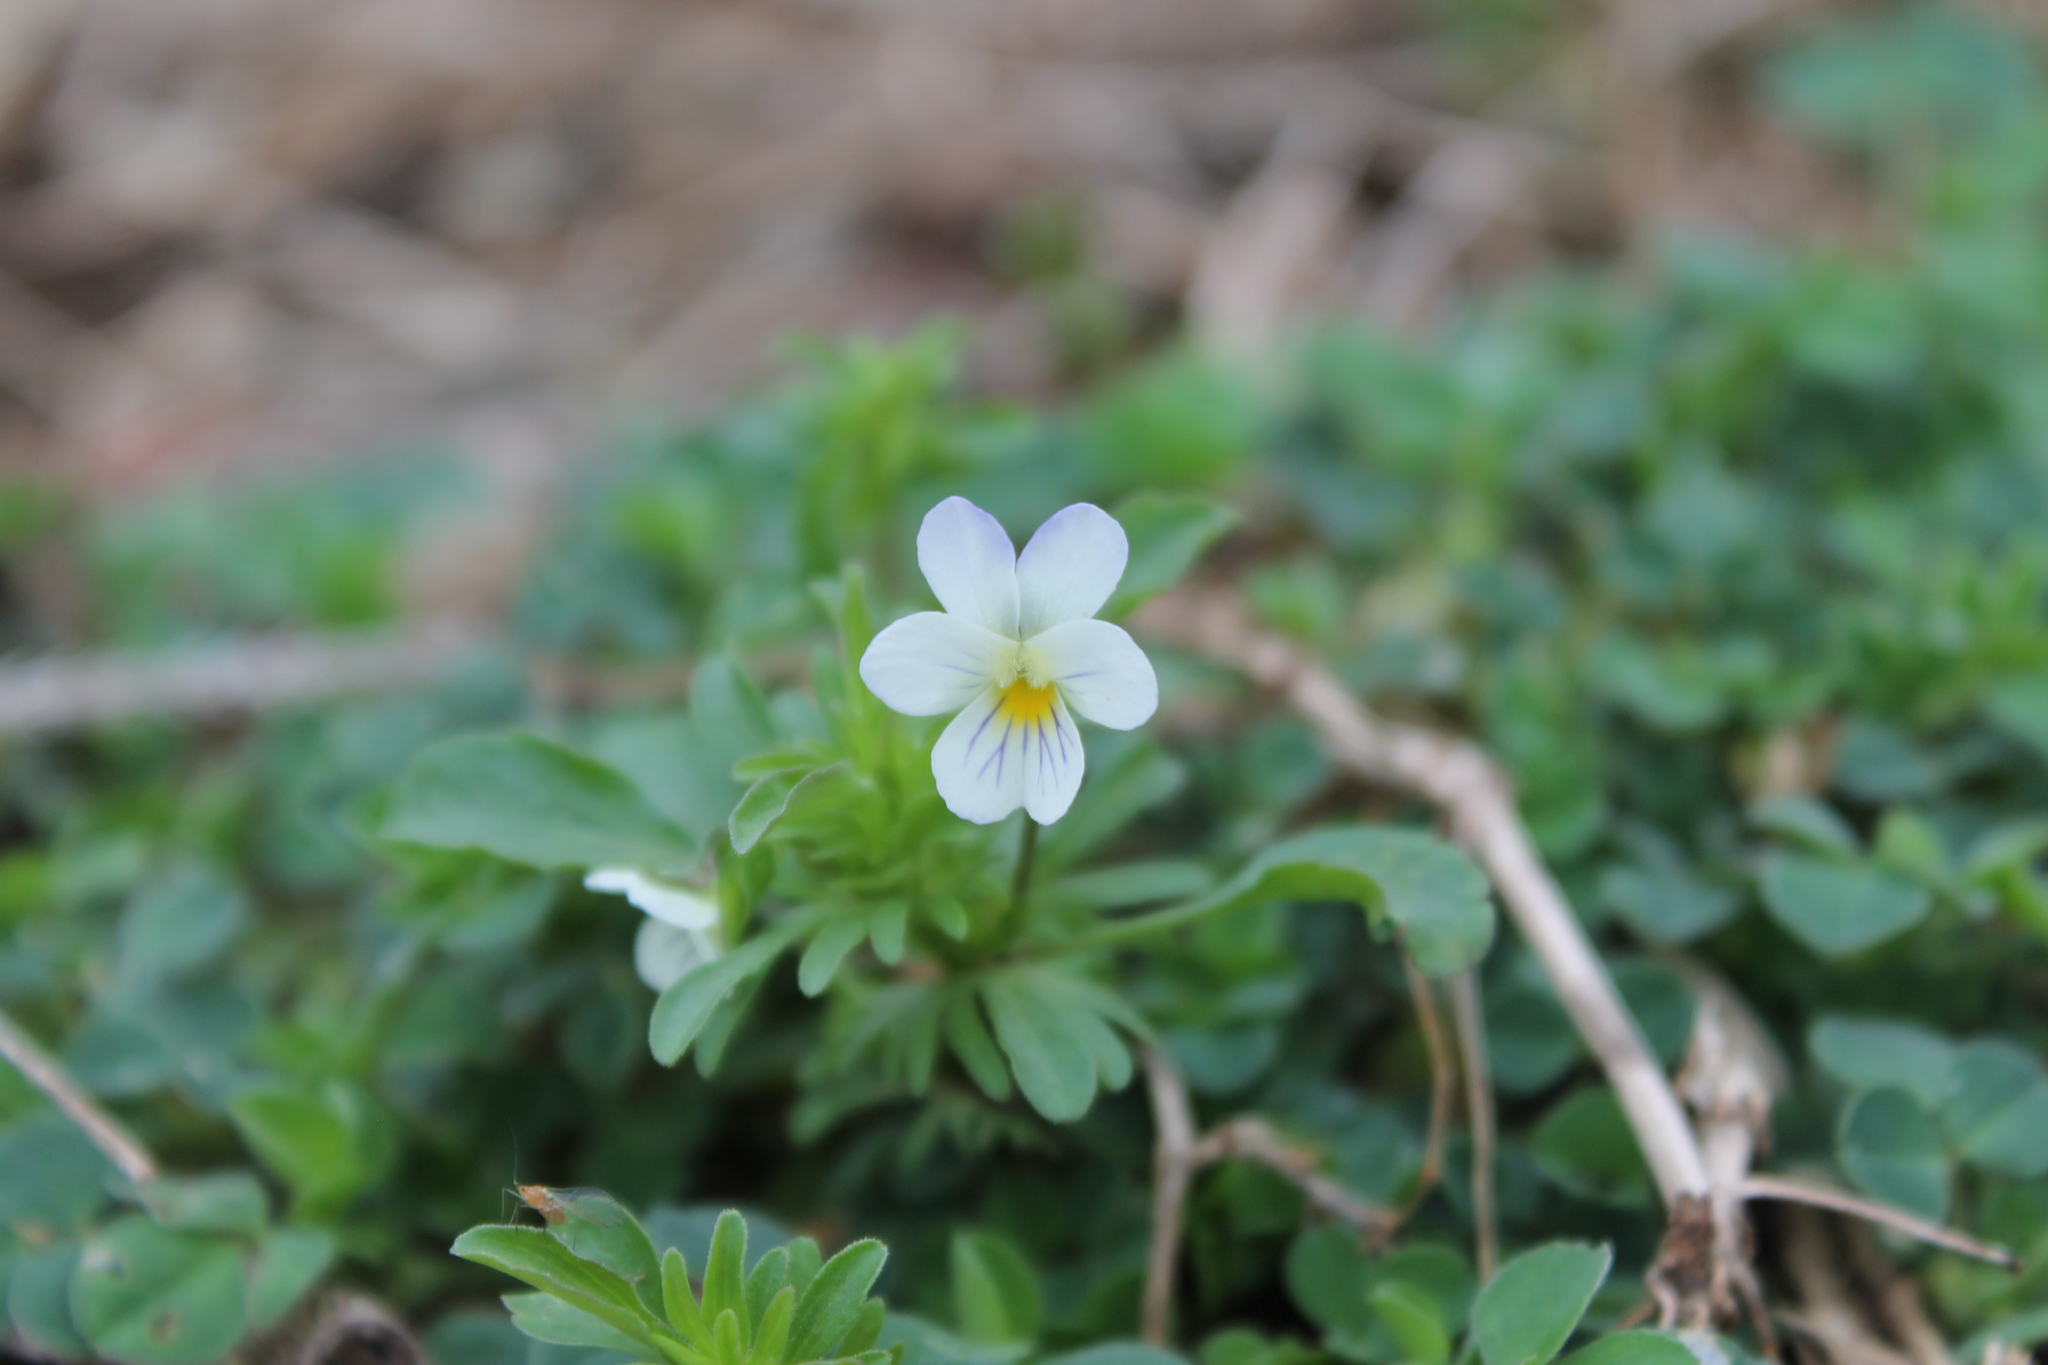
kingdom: Plantae
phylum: Tracheophyta
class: Magnoliopsida
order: Malpighiales
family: Violaceae
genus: Viola
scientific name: Viola rafinesquei
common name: American field pansy
